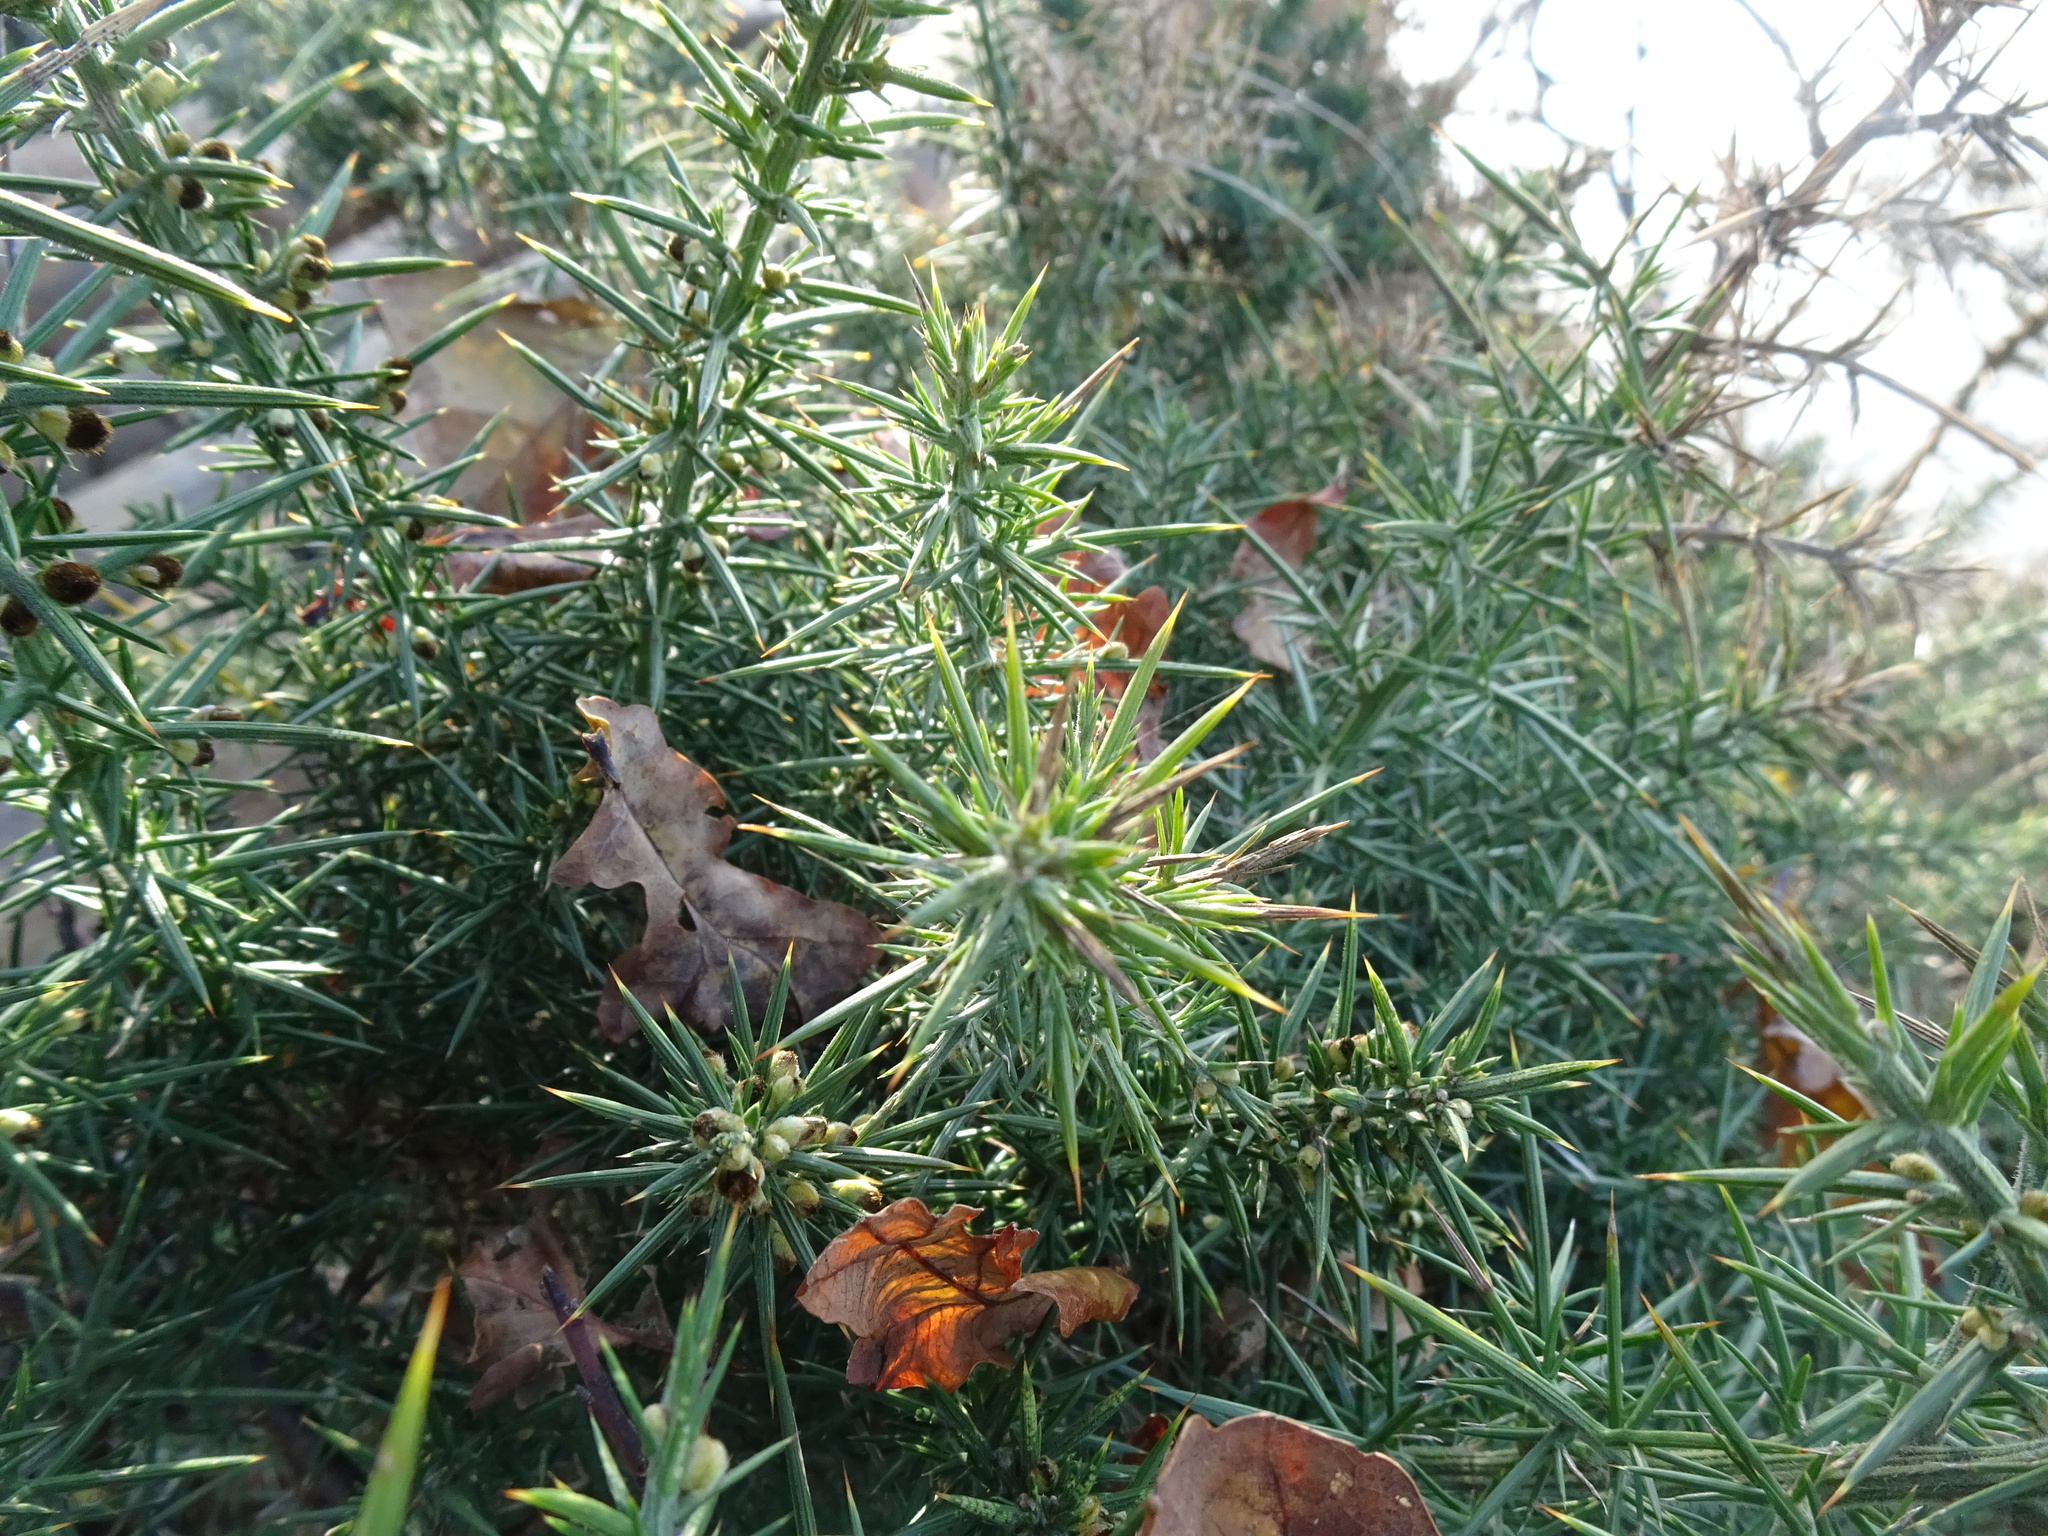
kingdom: Plantae
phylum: Tracheophyta
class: Magnoliopsida
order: Fabales
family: Fabaceae
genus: Ulex
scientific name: Ulex europaeus
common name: Common gorse
